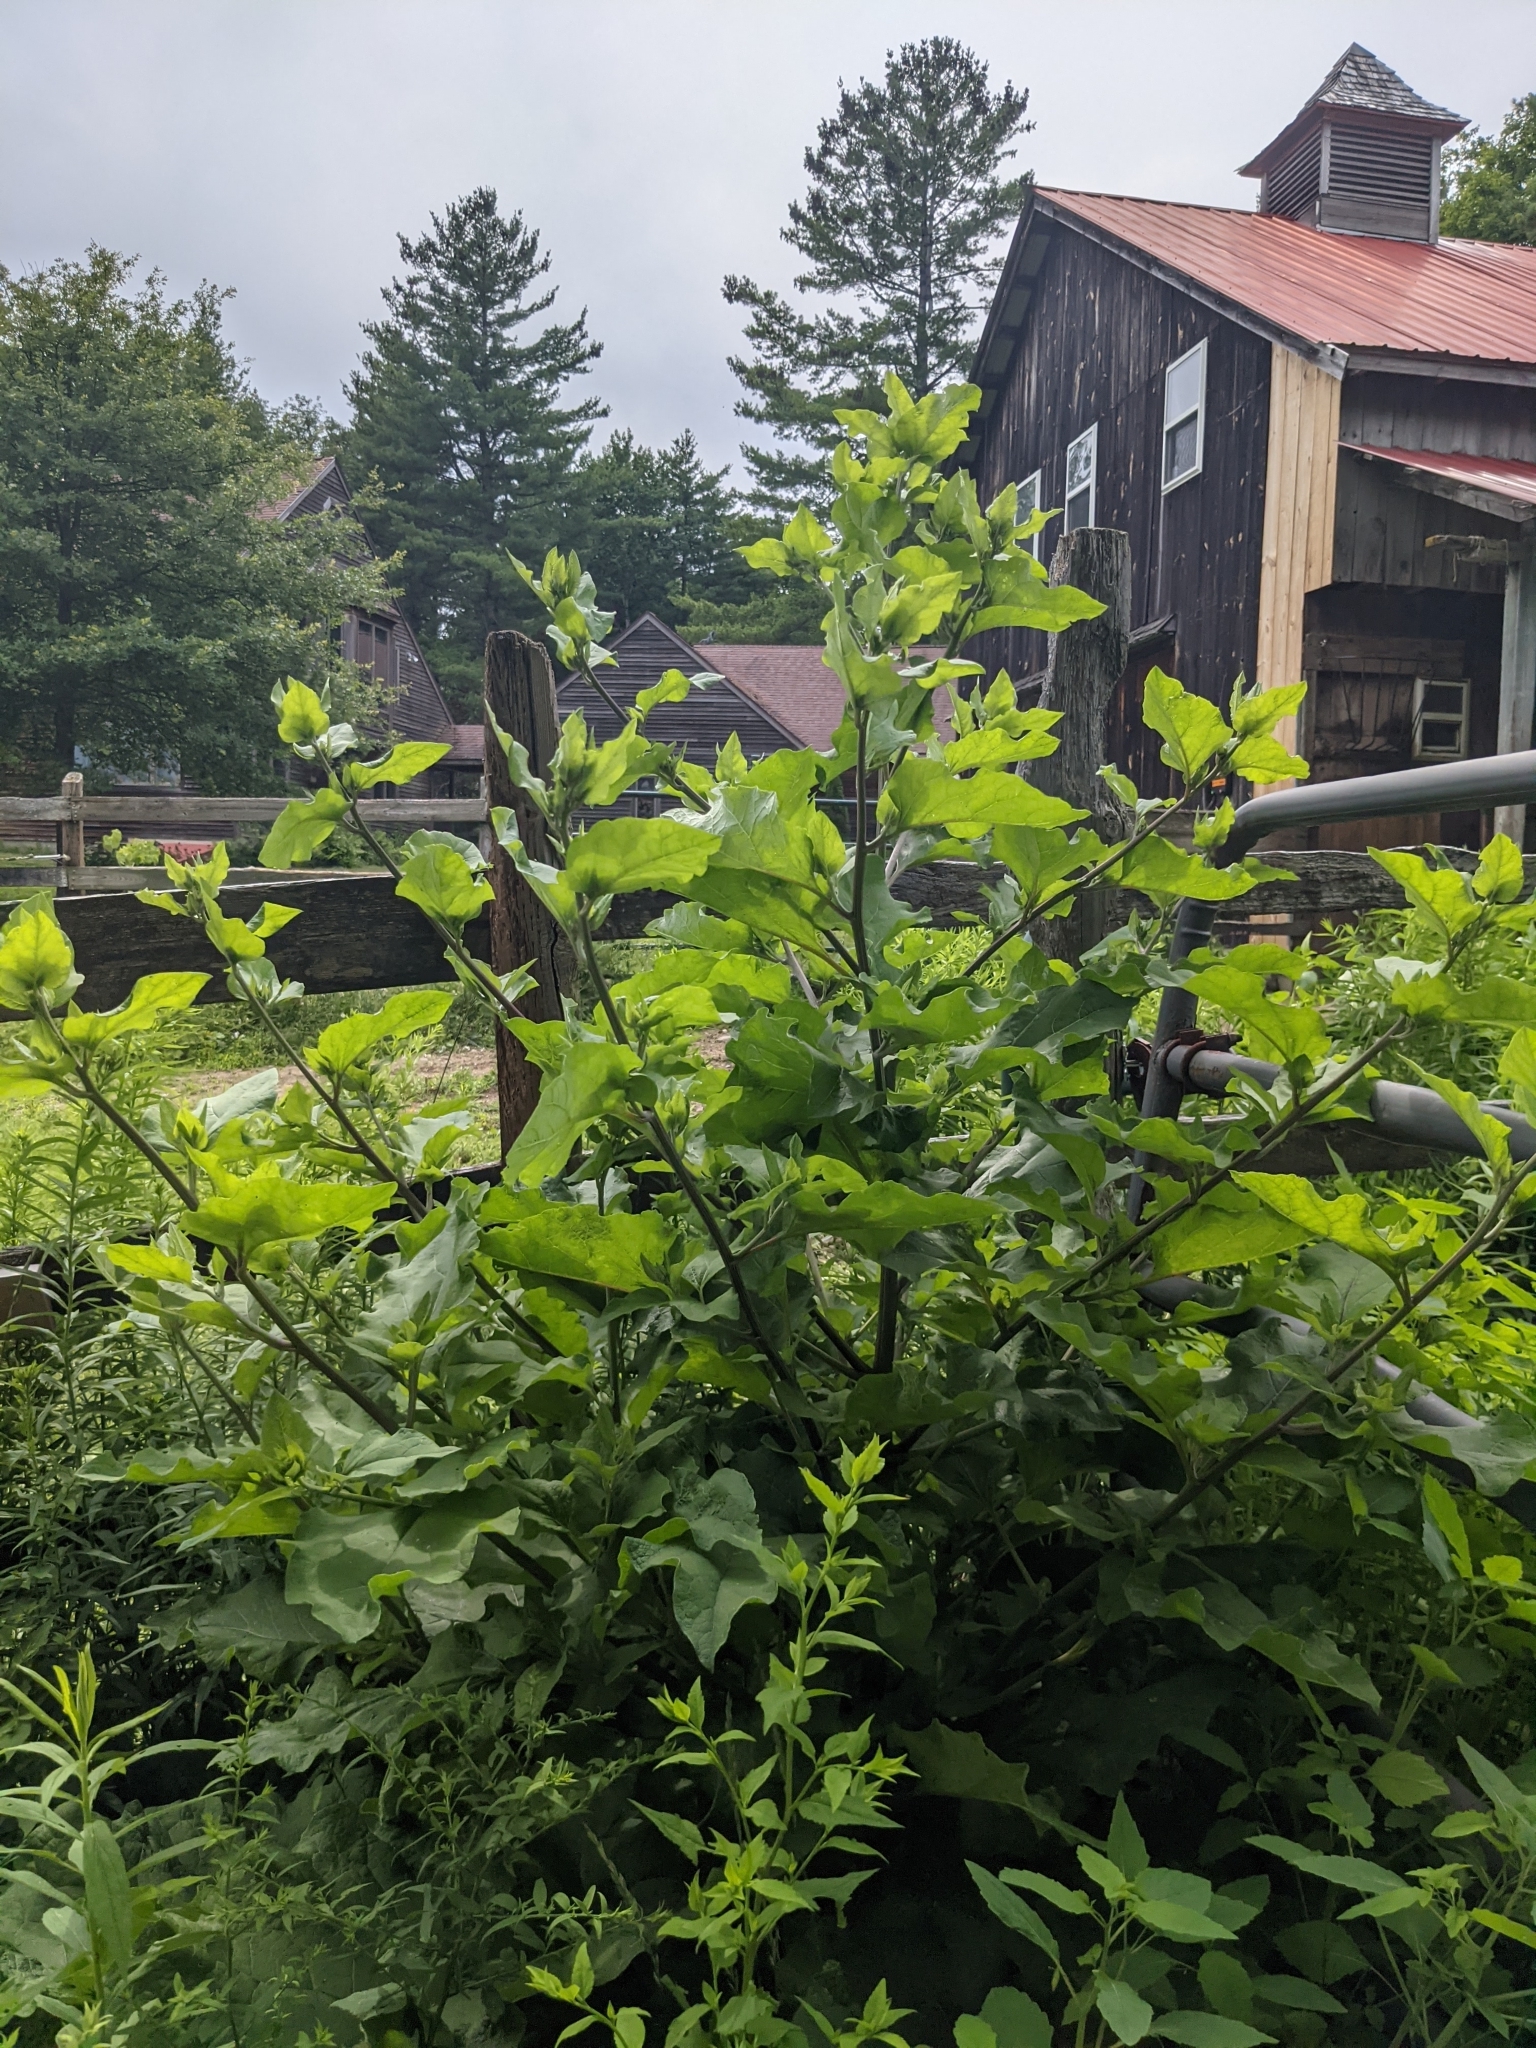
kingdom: Plantae
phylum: Tracheophyta
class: Magnoliopsida
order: Asterales
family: Asteraceae
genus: Arctium
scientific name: Arctium
